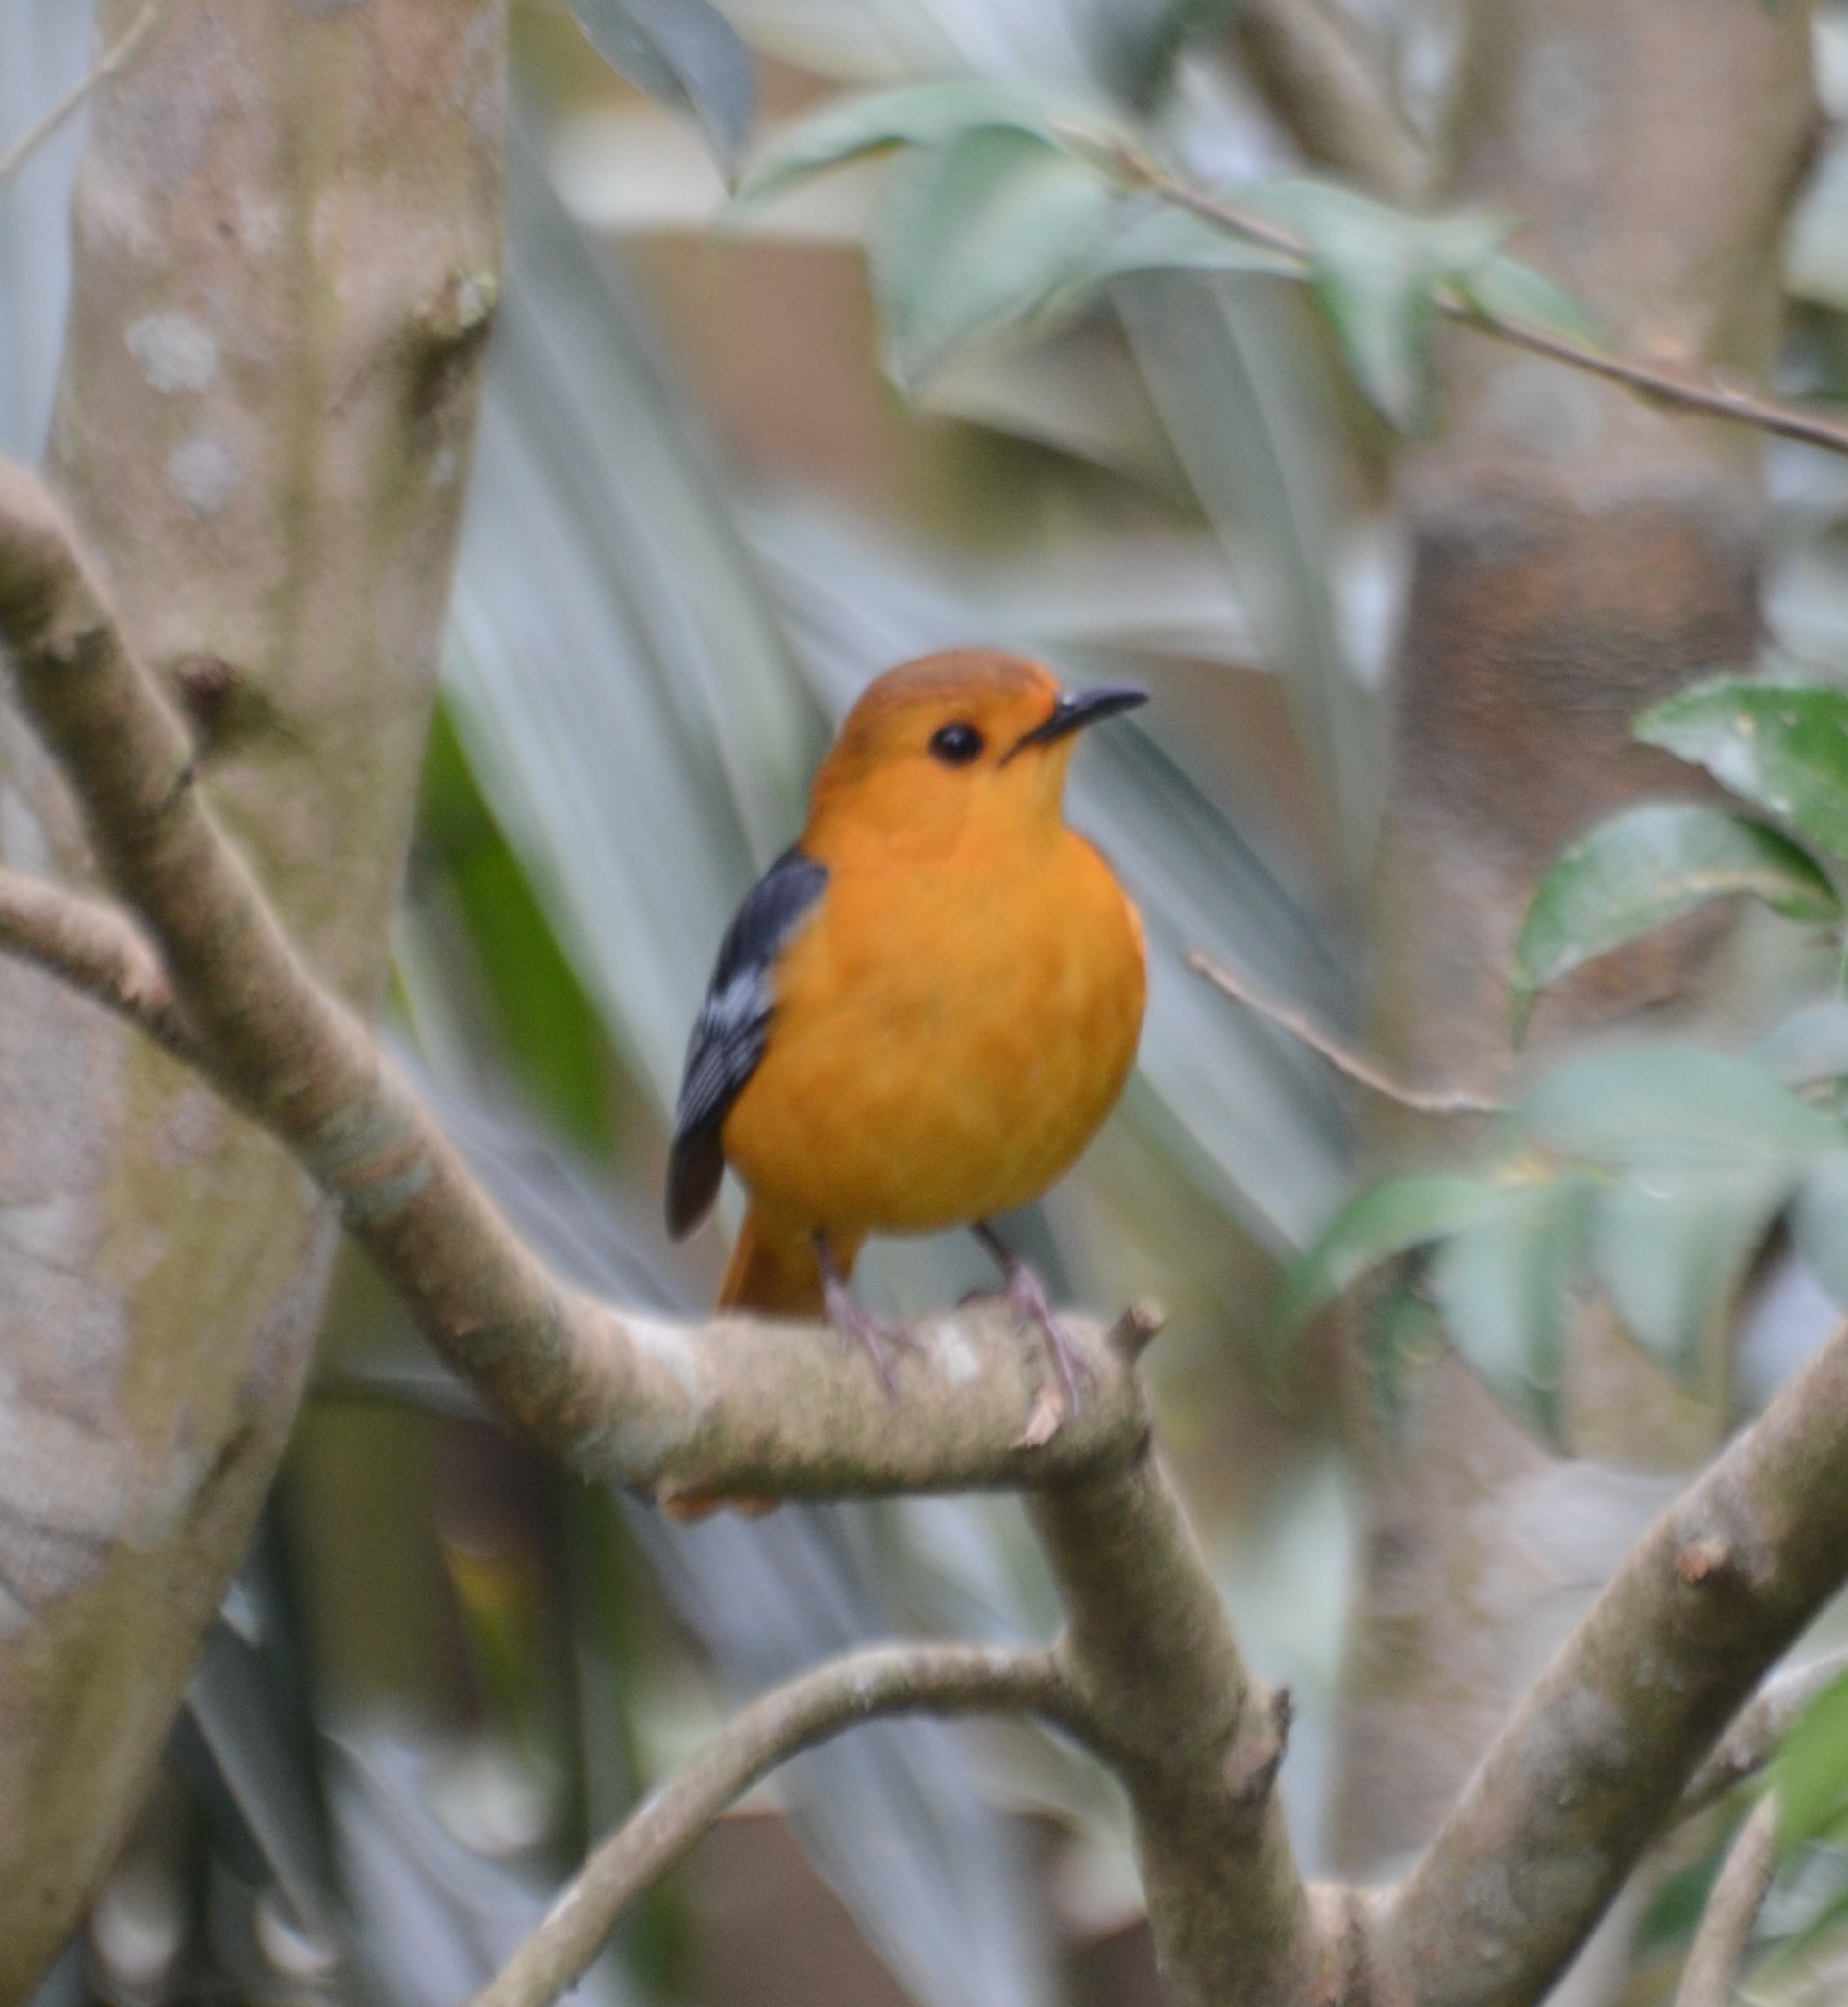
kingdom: Animalia
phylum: Chordata
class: Aves
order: Passeriformes
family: Muscicapidae
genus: Cossypha
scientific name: Cossypha natalensis
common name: Red-capped robin-chat
